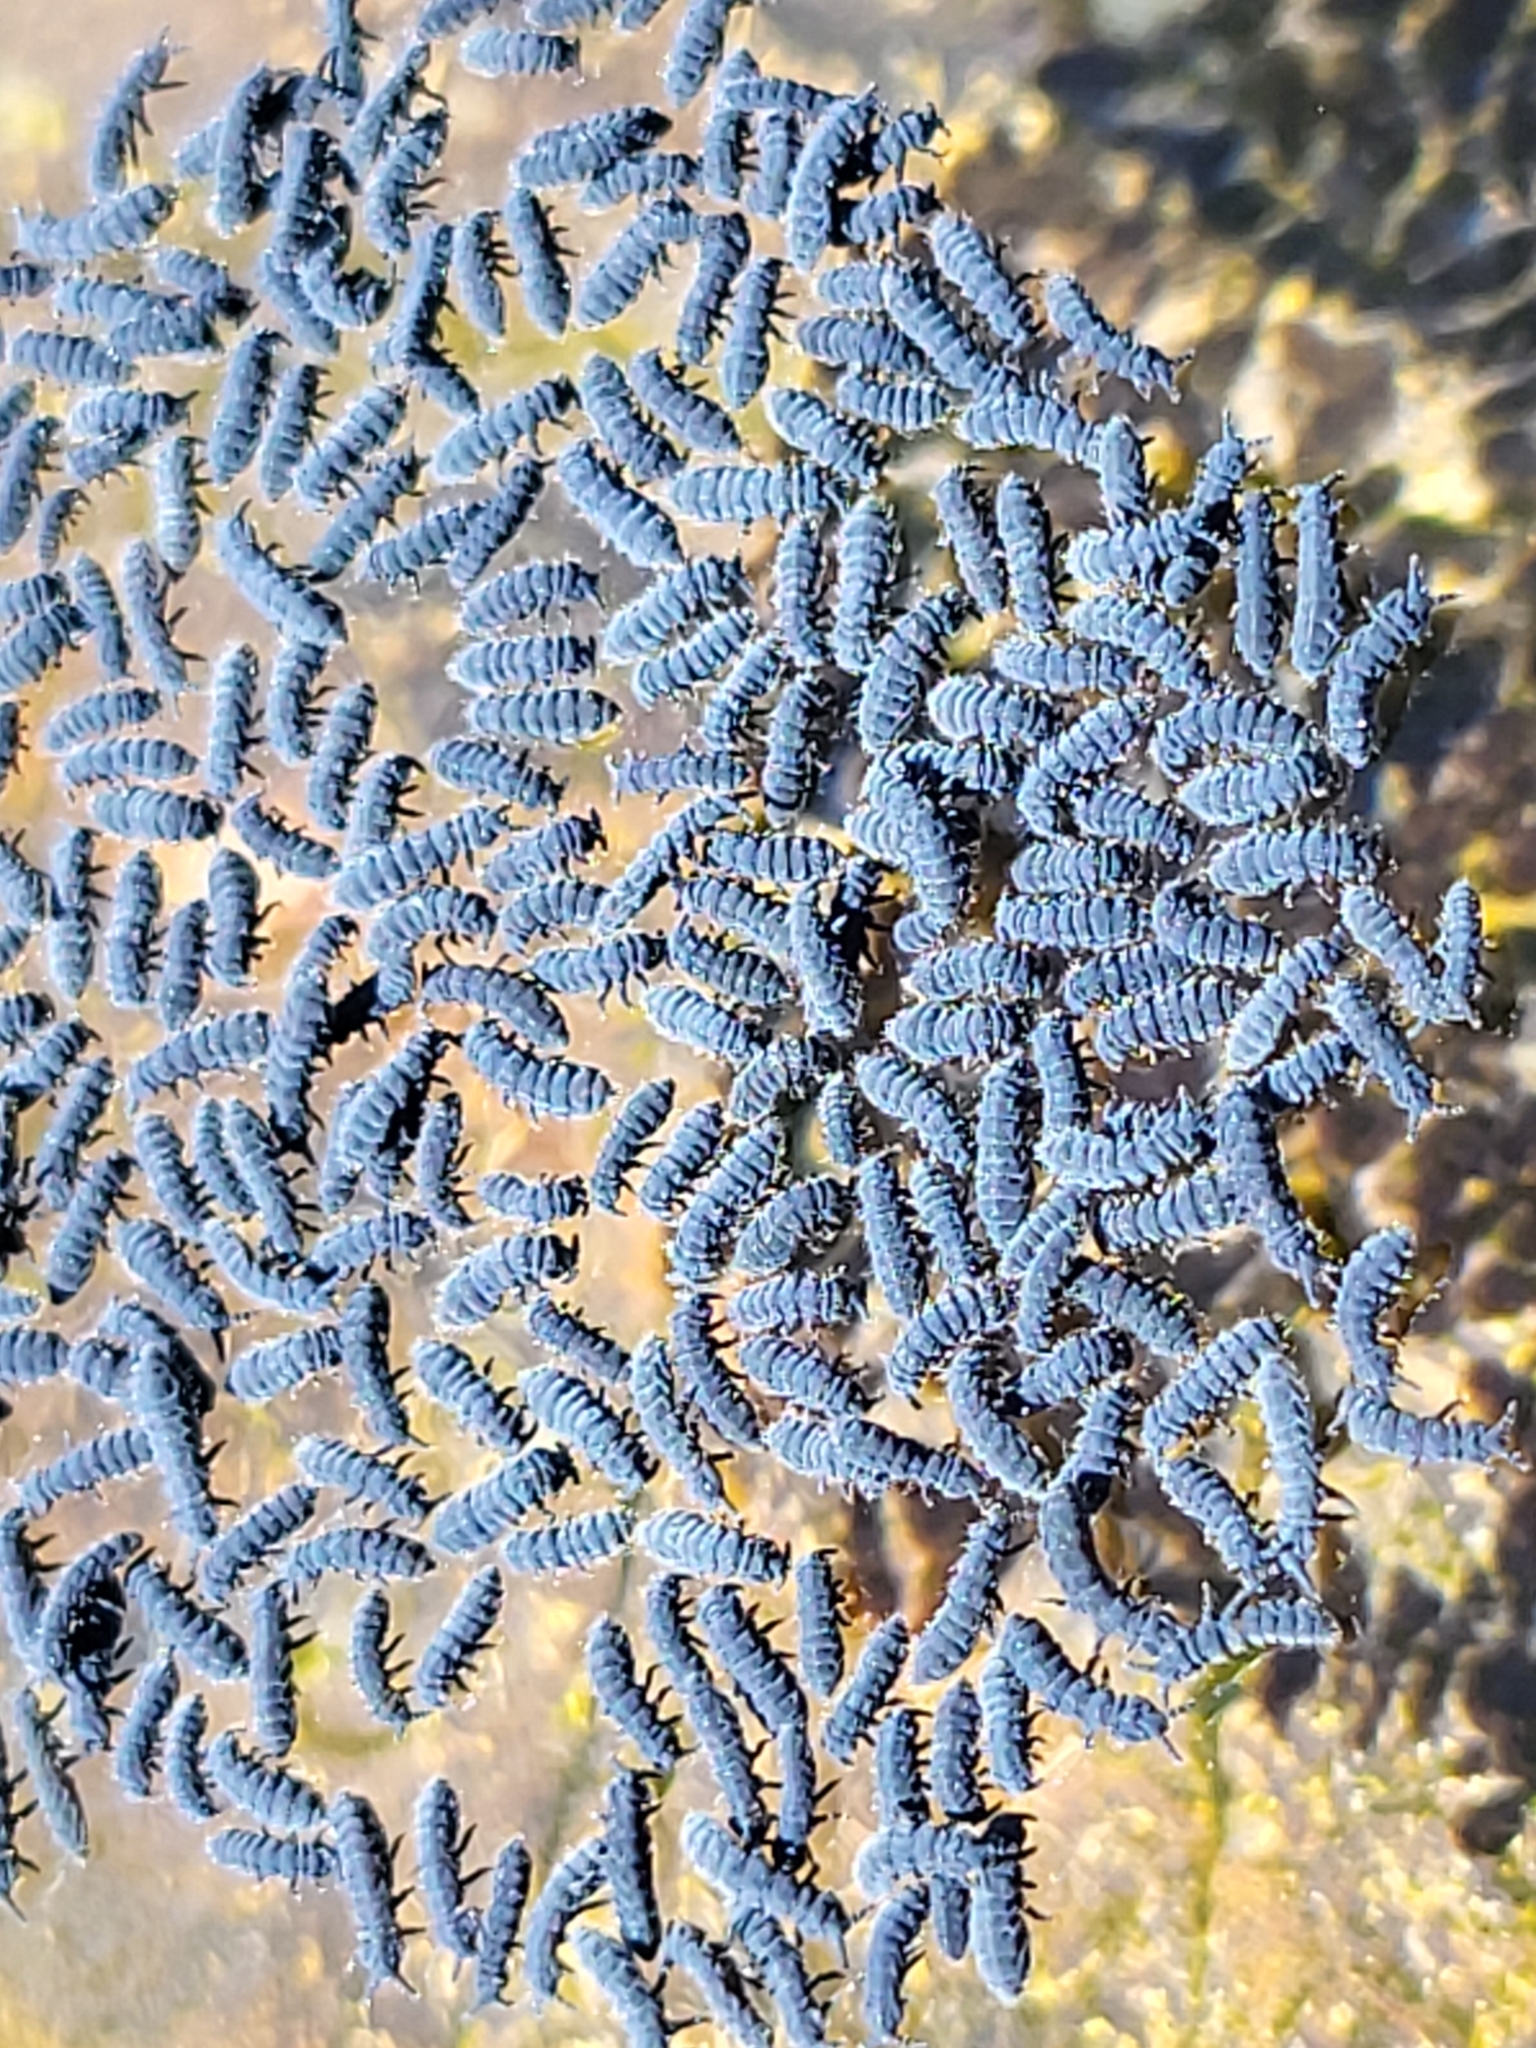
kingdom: Animalia
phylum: Arthropoda
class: Collembola
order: Poduromorpha
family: Neanuridae
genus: Anurida
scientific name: Anurida maritima
